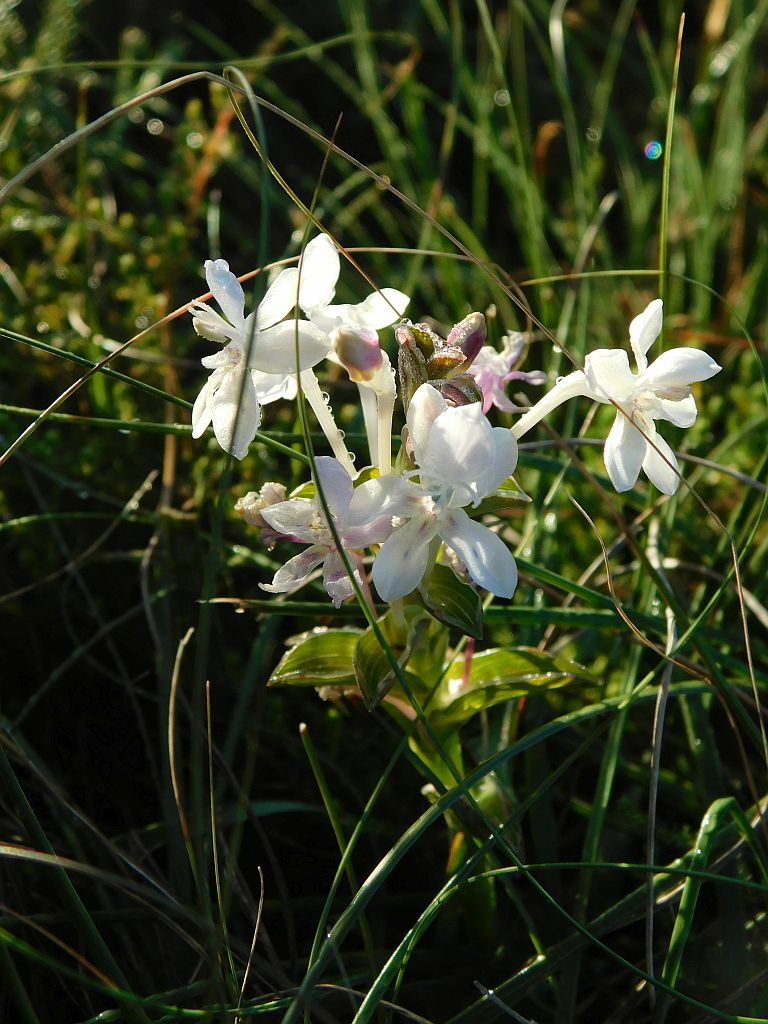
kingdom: Plantae
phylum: Tracheophyta
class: Liliopsida
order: Asparagales
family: Iridaceae
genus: Lapeirousia
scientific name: Lapeirousia pyramidalis
